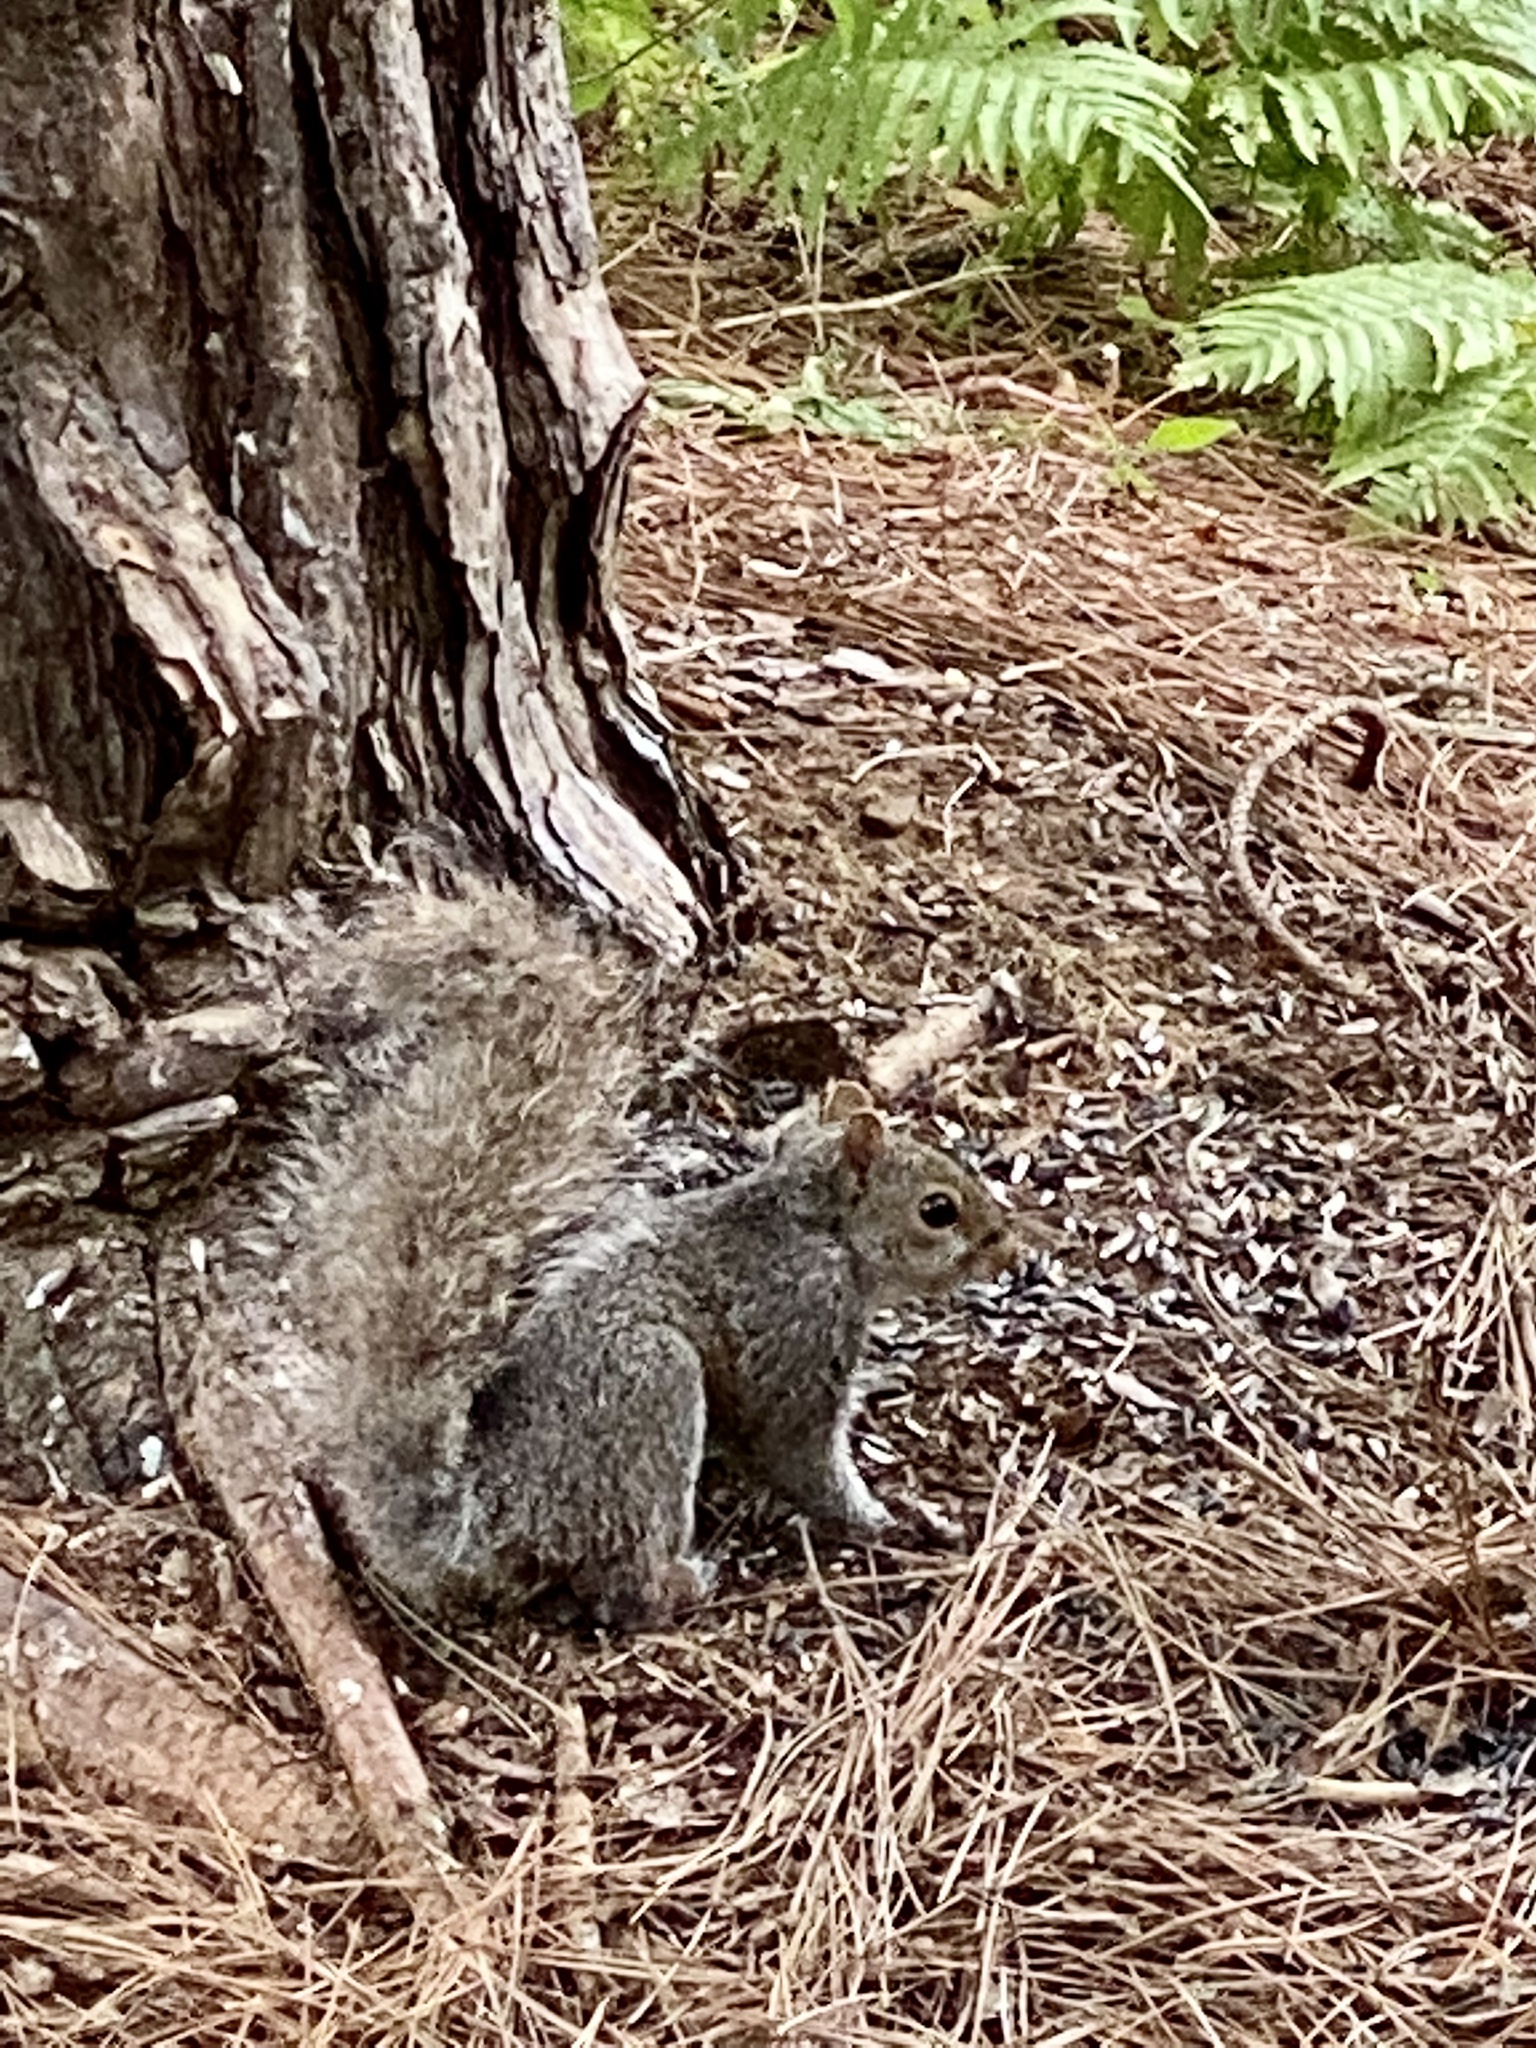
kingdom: Animalia
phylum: Chordata
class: Mammalia
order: Rodentia
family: Sciuridae
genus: Sciurus
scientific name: Sciurus carolinensis
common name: Eastern gray squirrel
